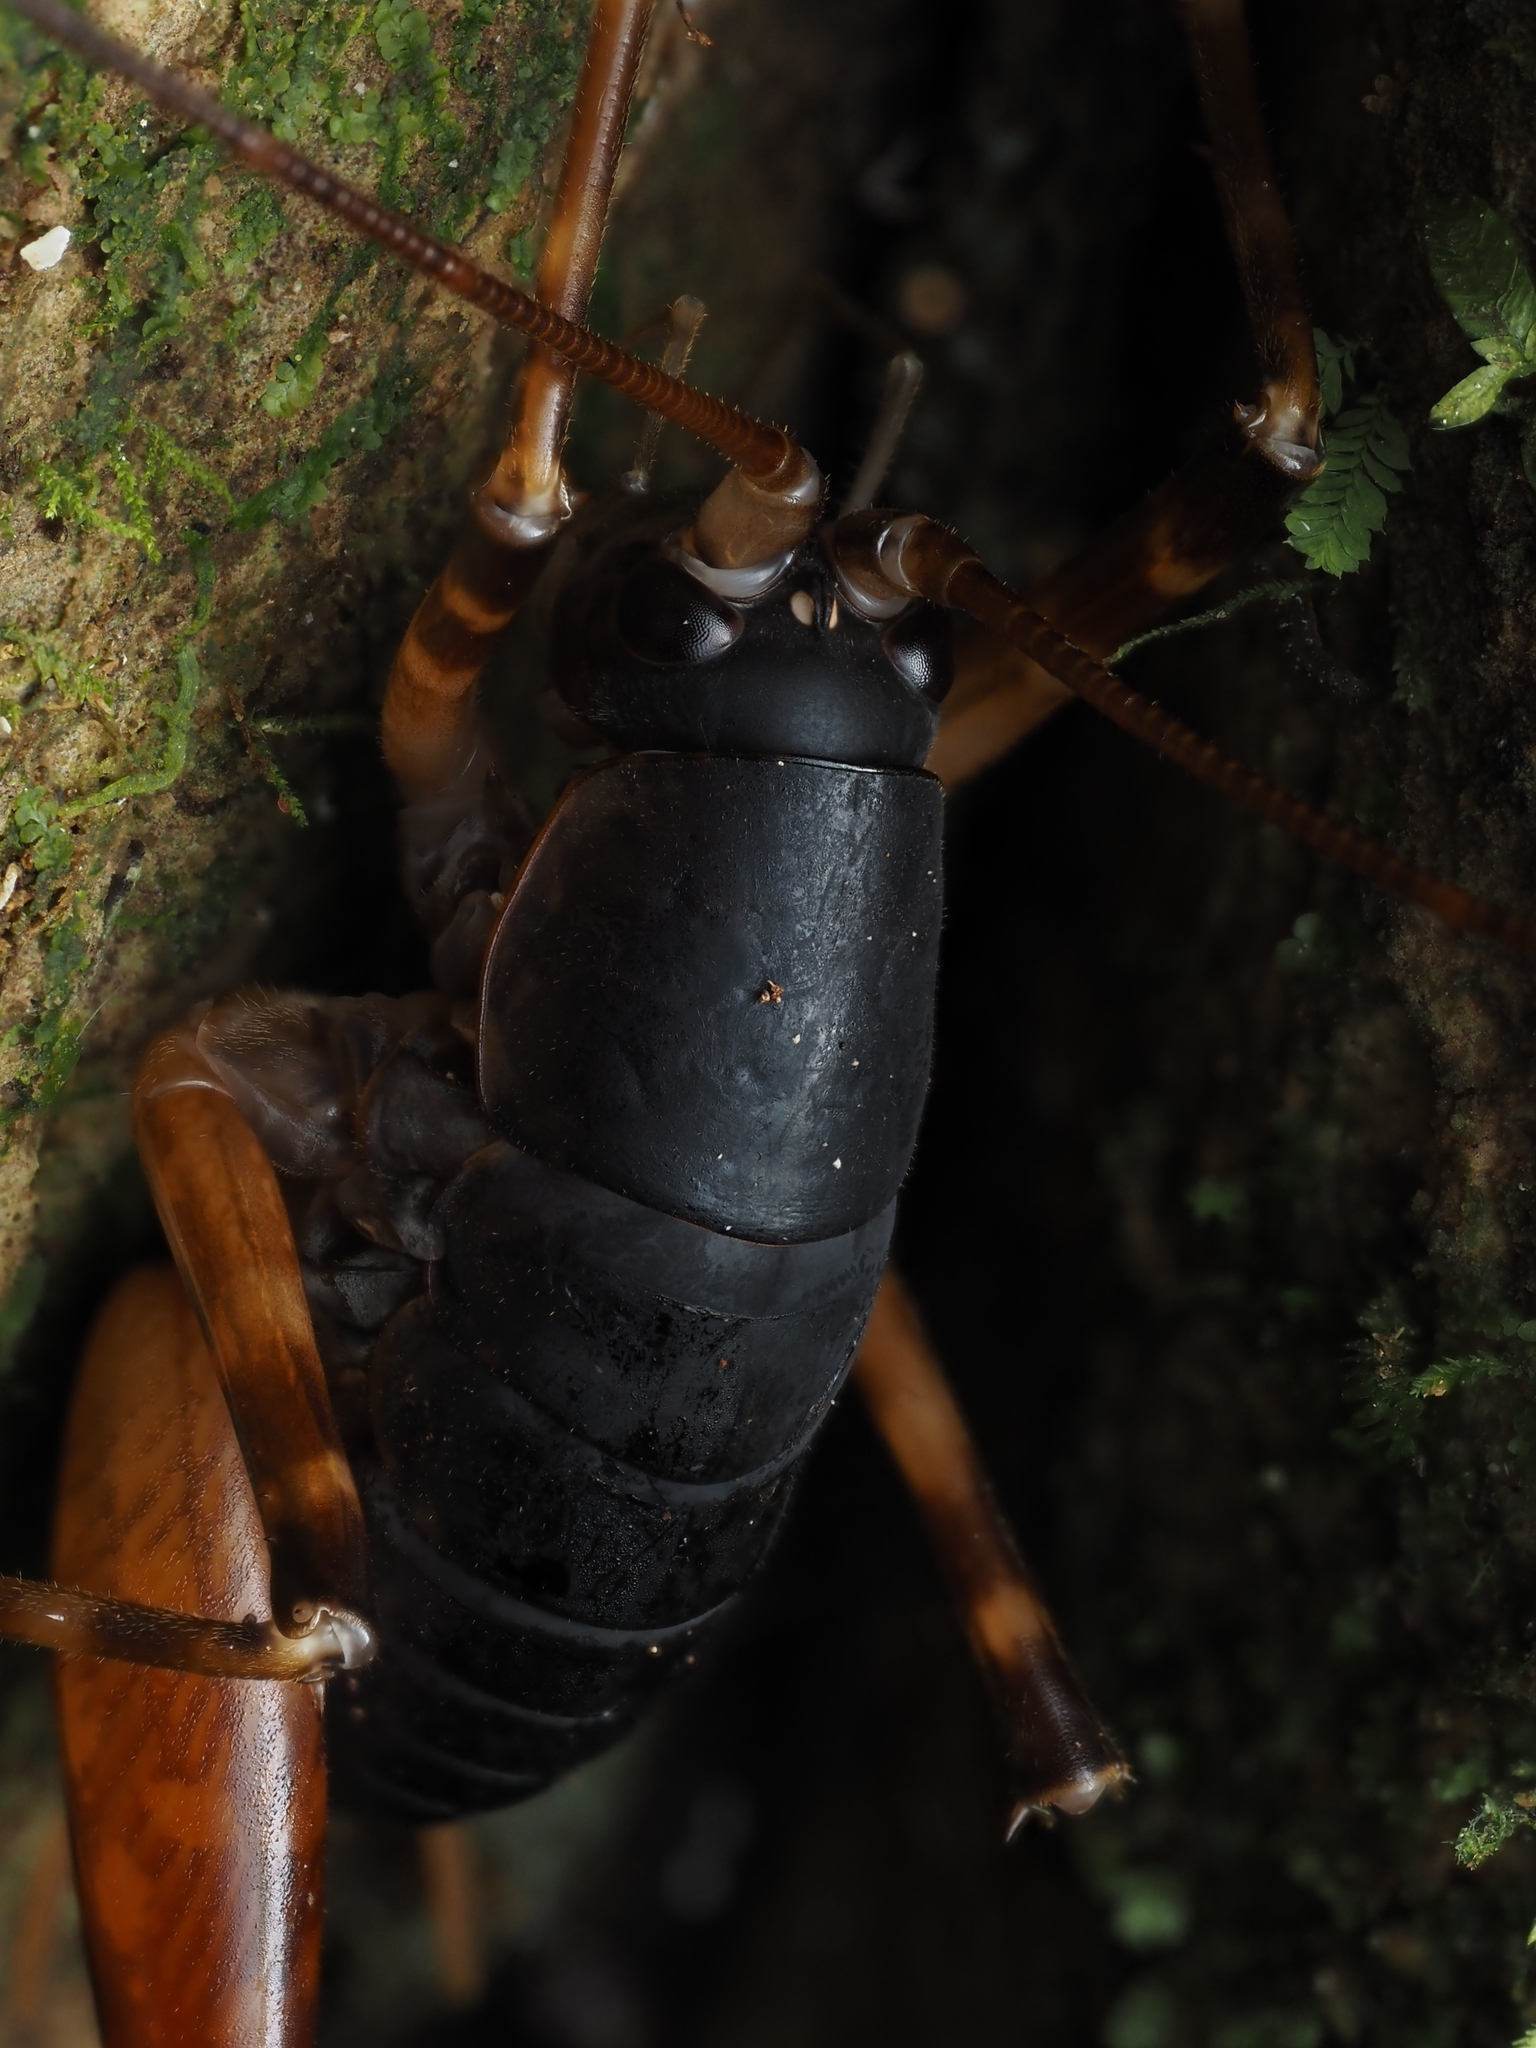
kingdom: Animalia
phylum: Arthropoda
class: Insecta
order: Orthoptera
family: Rhaphidophoridae
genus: Pachyrhamma
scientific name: Pachyrhamma longicauda
